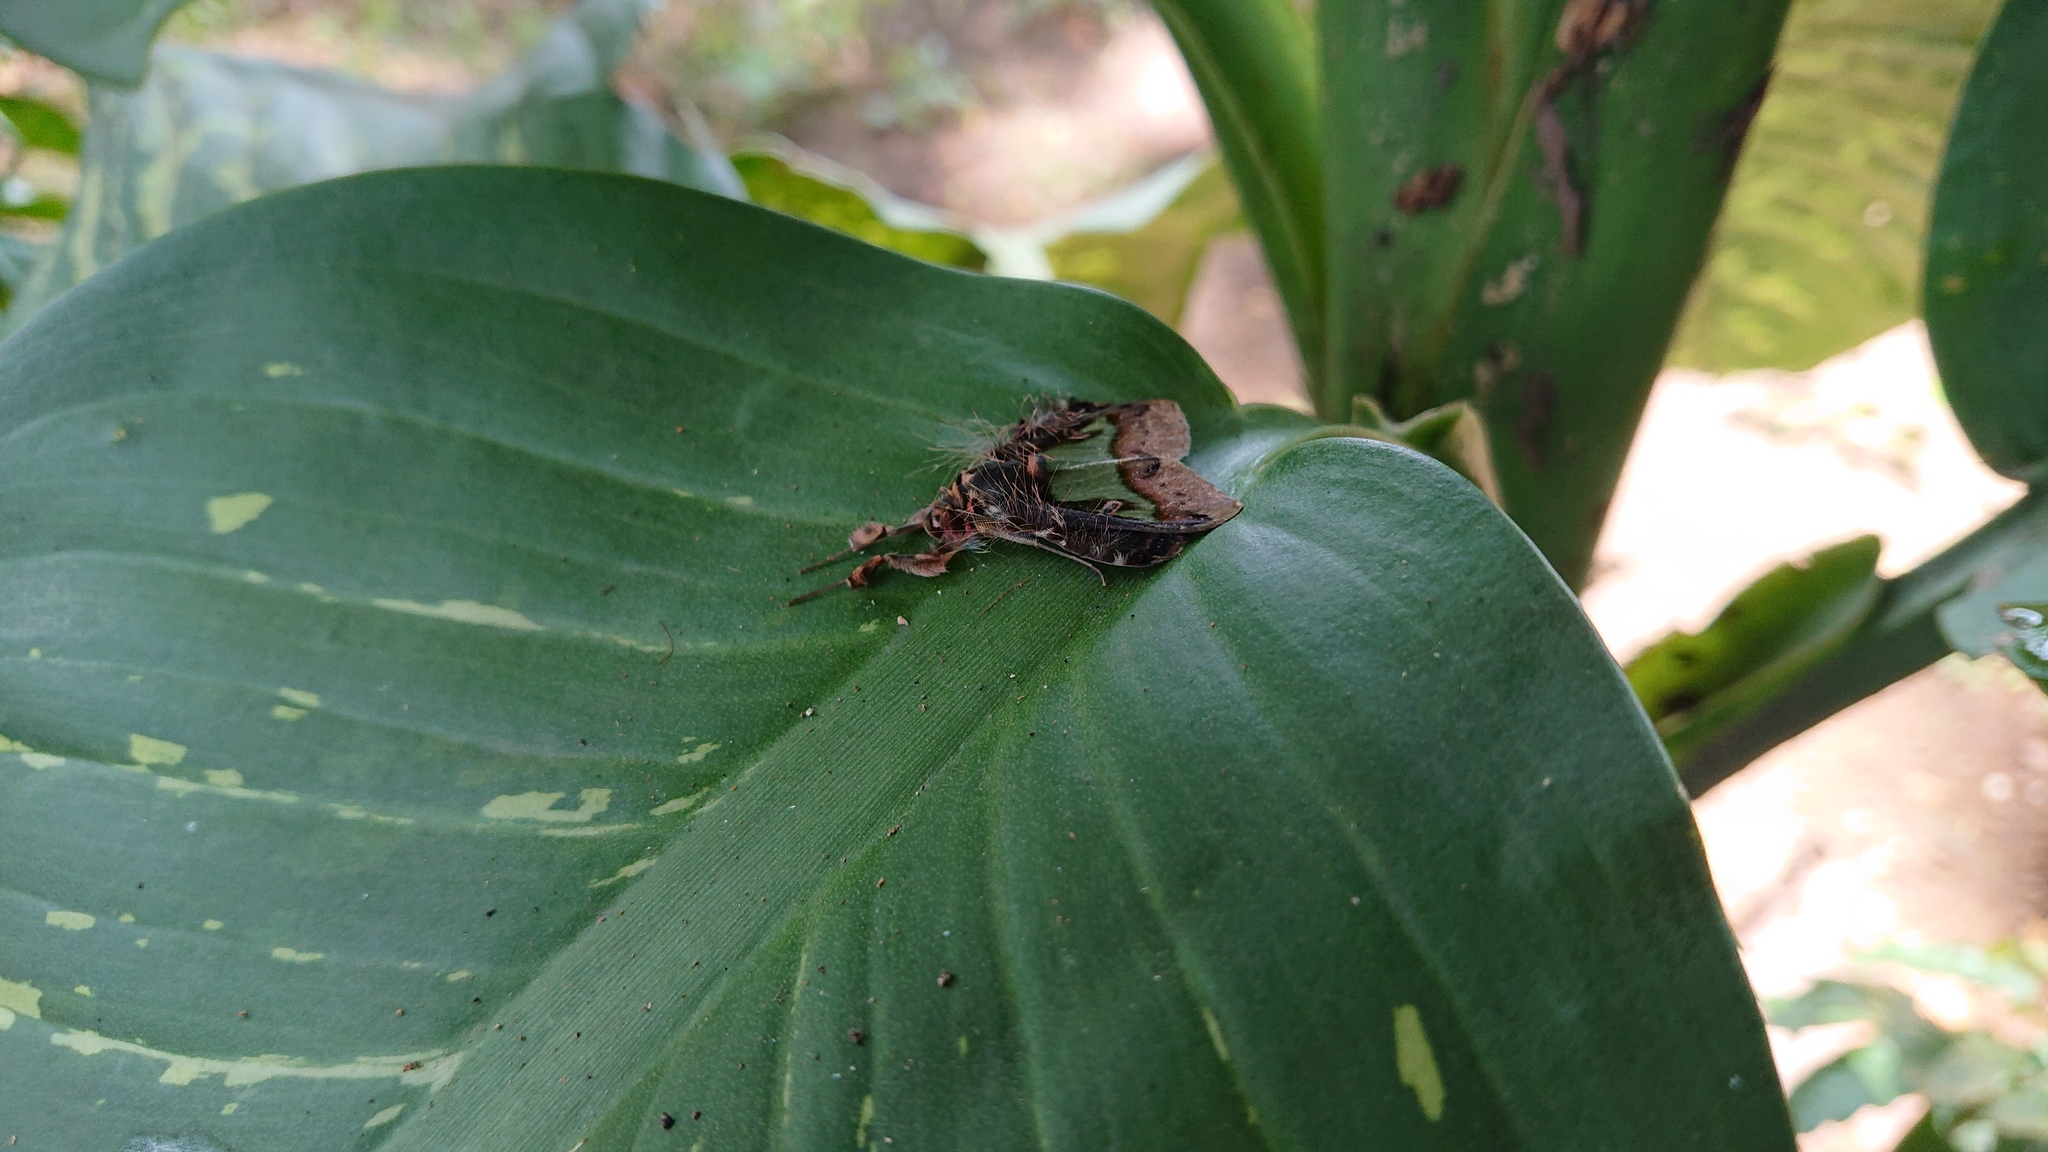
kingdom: Animalia
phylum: Arthropoda
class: Insecta
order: Lepidoptera
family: Erebidae
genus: Ceroctena
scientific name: Ceroctena amynta
